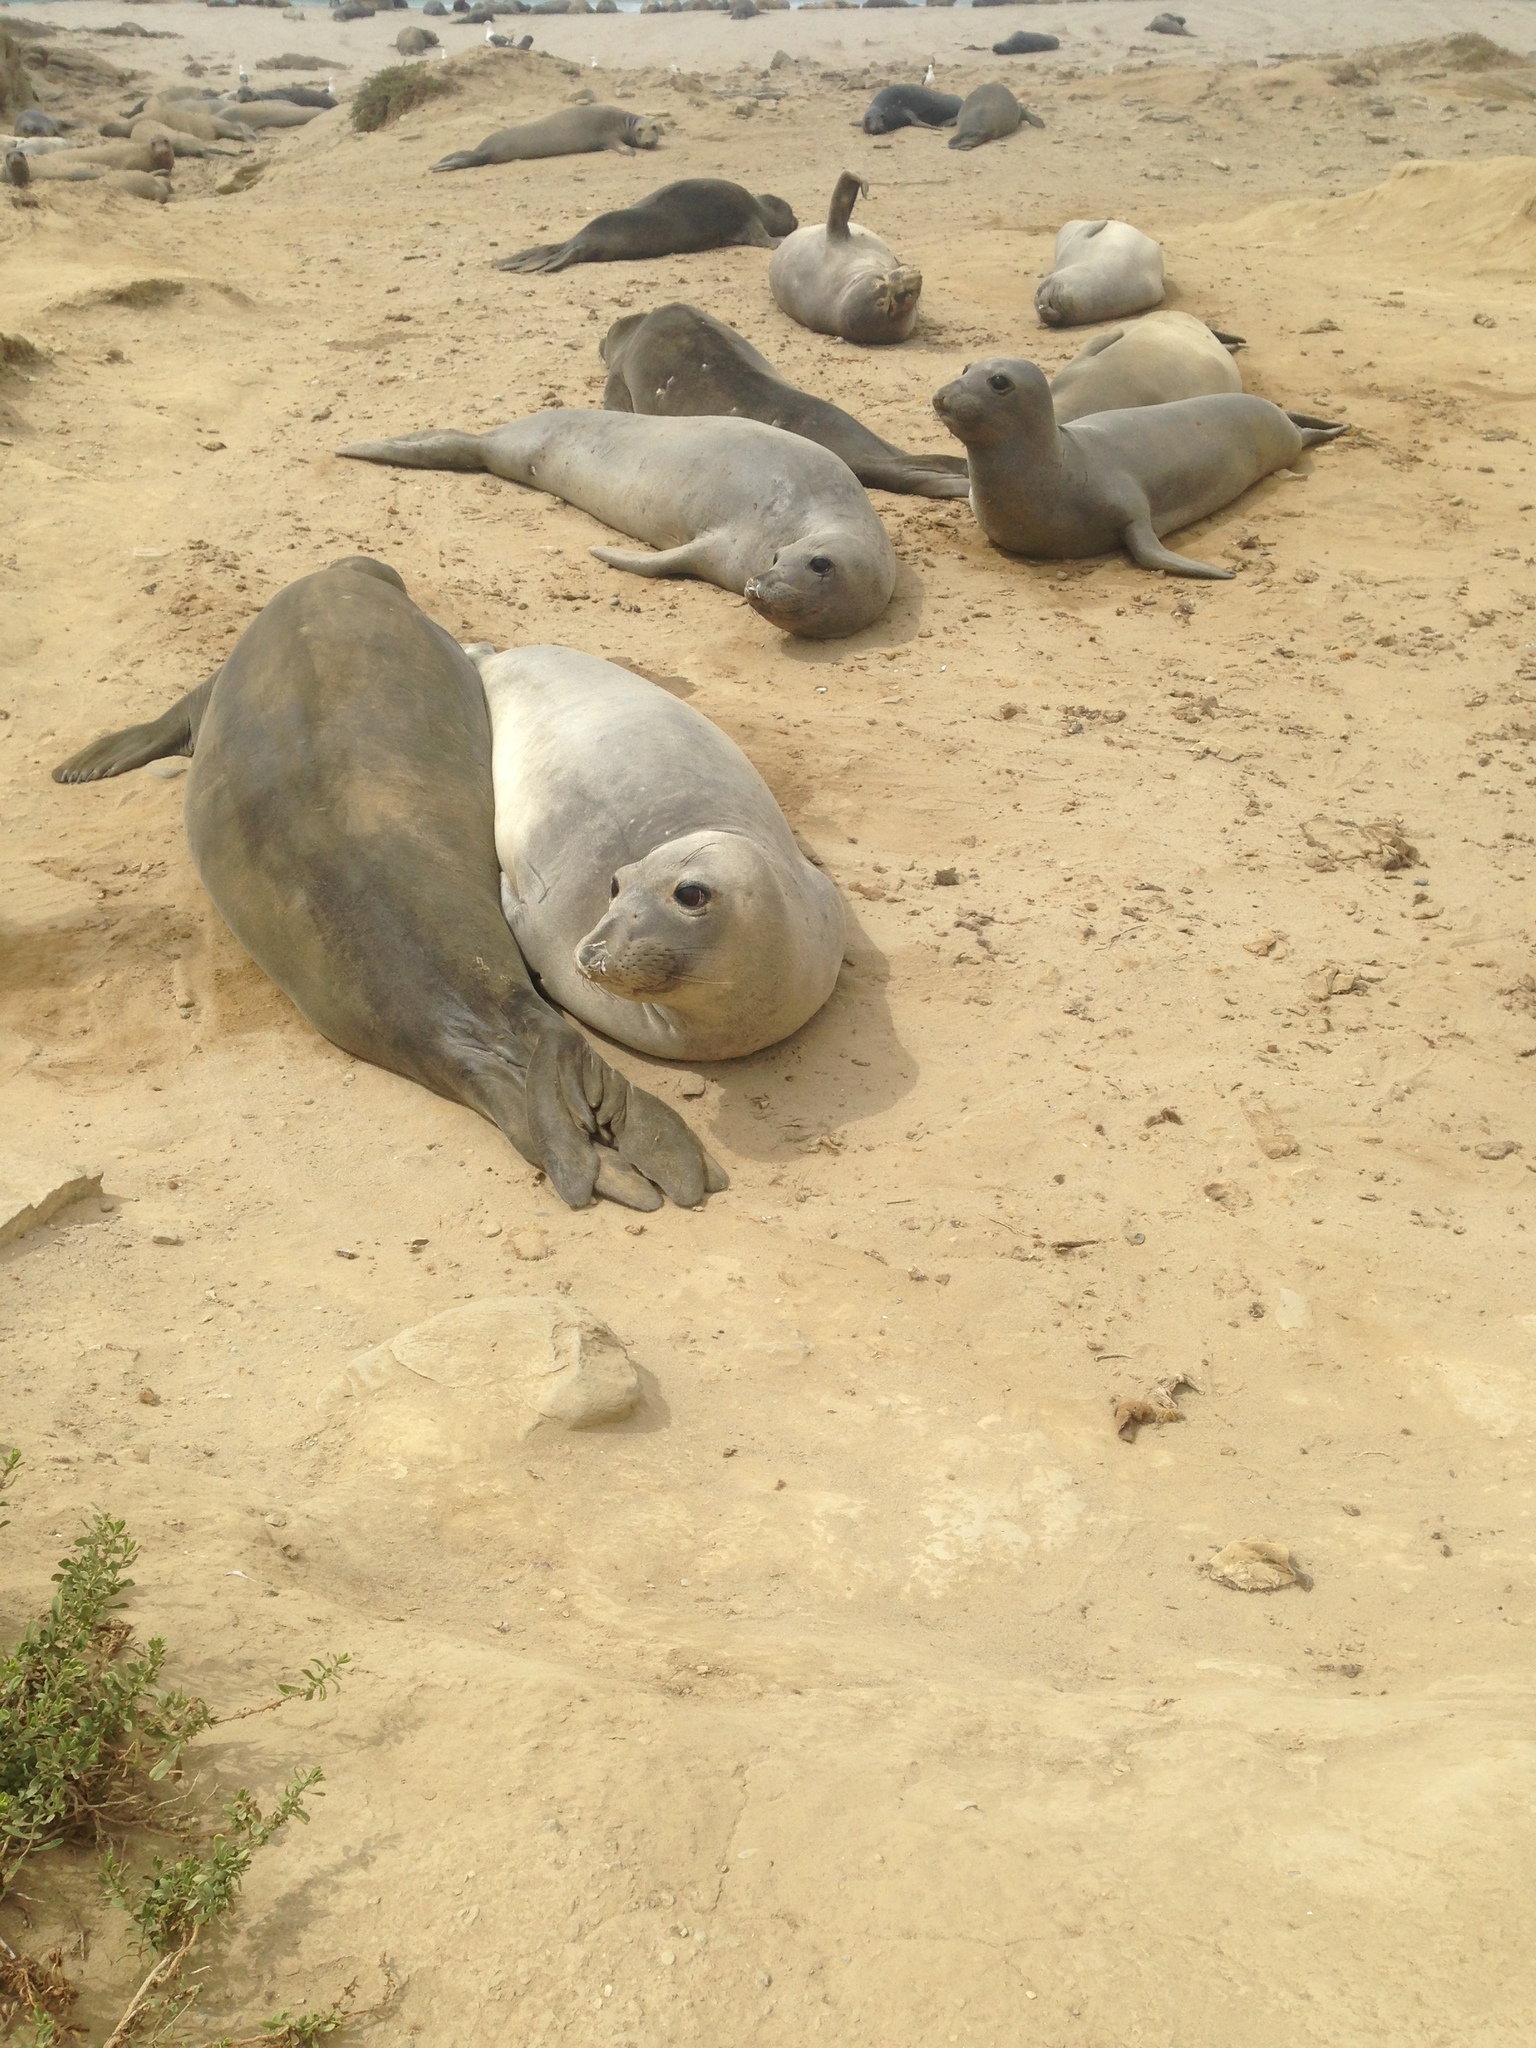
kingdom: Animalia
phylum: Chordata
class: Mammalia
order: Carnivora
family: Phocidae
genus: Mirounga
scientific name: Mirounga angustirostris
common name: Northern elephant seal
